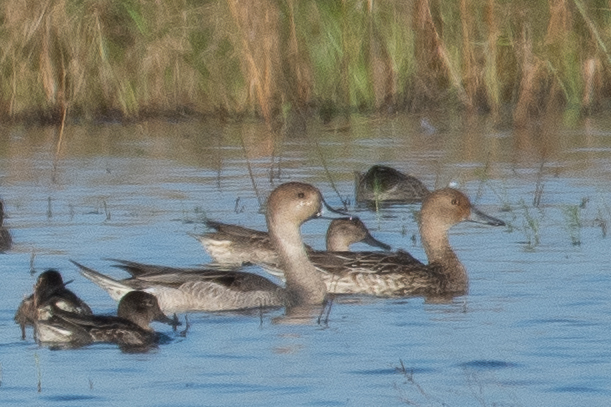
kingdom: Animalia
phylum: Chordata
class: Aves
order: Anseriformes
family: Anatidae
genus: Anas
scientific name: Anas acuta
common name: Northern pintail
